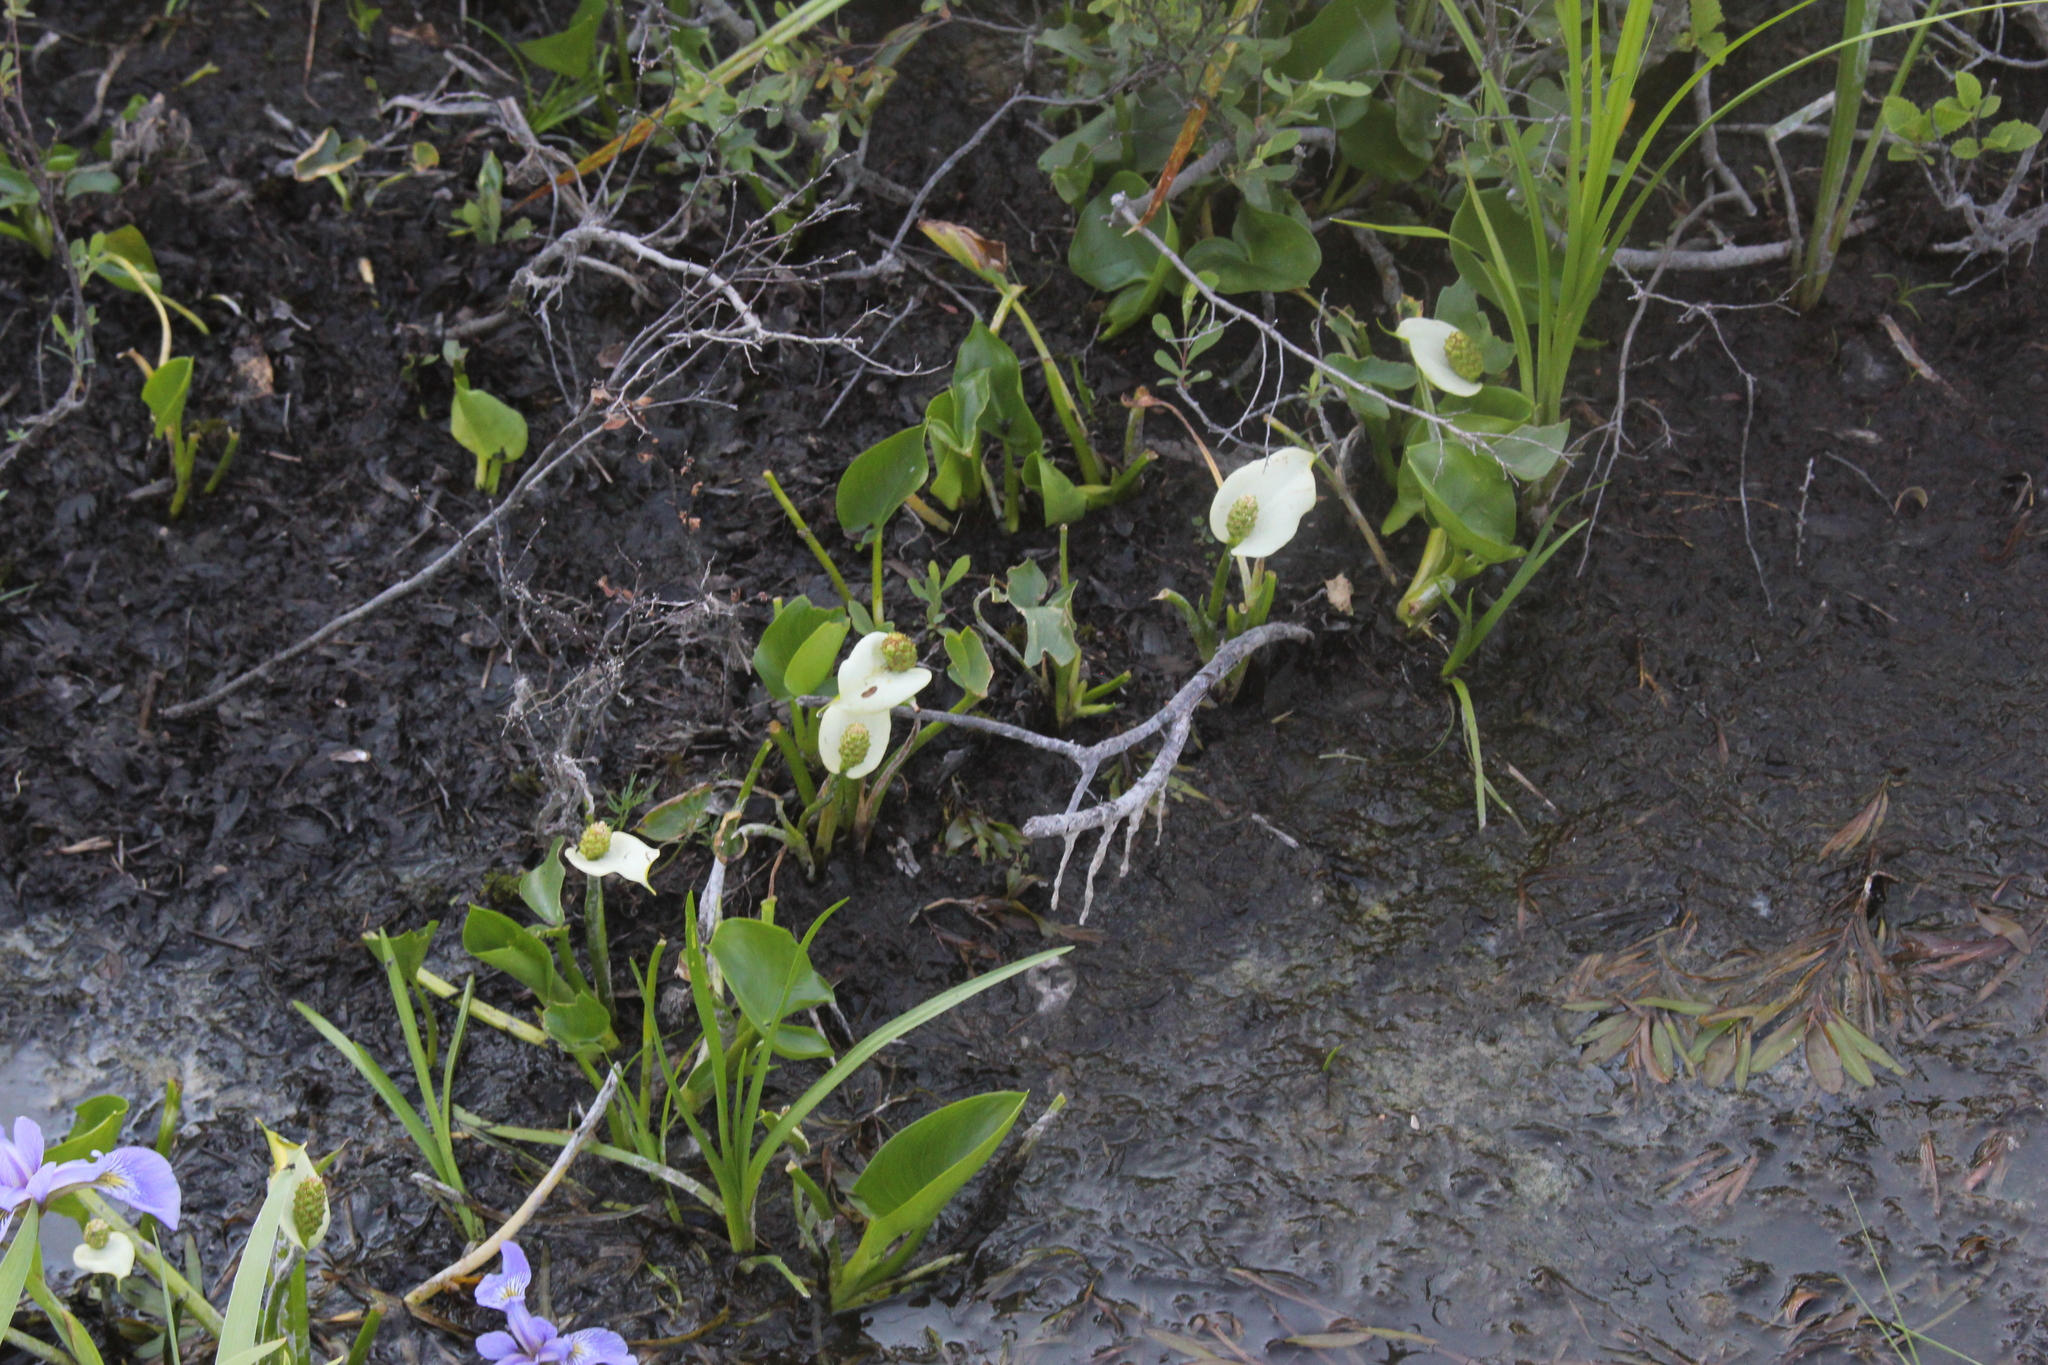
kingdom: Plantae
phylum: Tracheophyta
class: Liliopsida
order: Alismatales
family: Araceae
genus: Calla
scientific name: Calla palustris
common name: Bog arum
